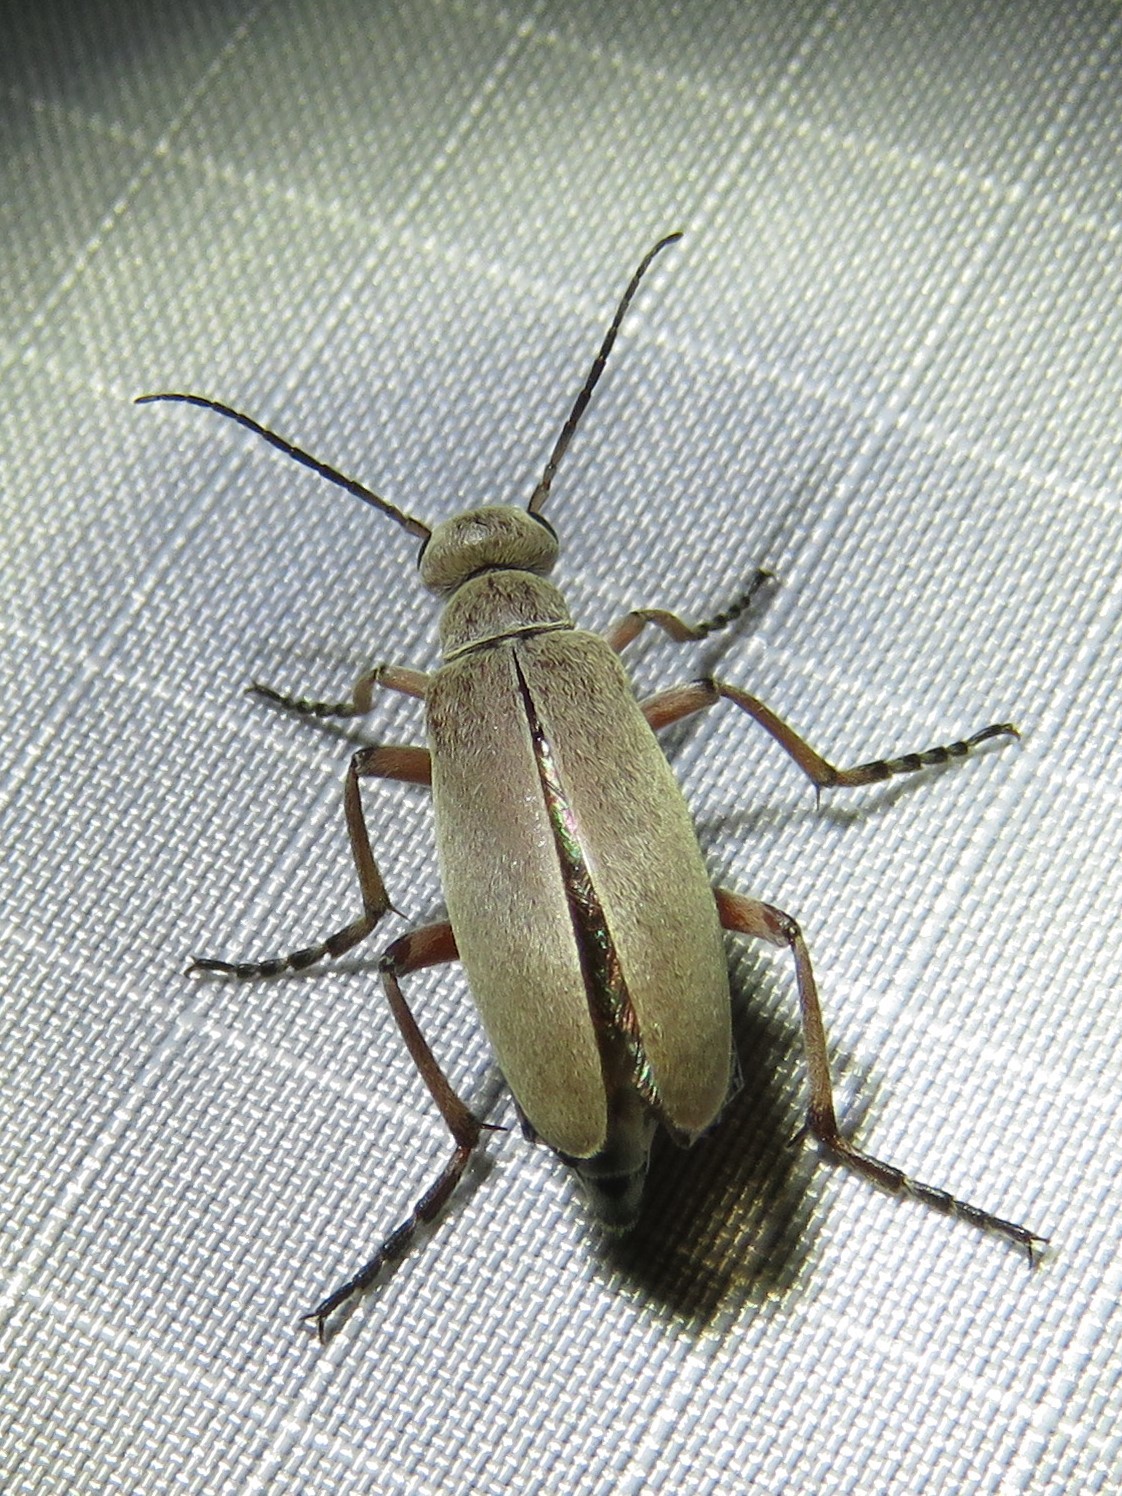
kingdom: Animalia
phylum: Arthropoda
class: Insecta
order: Coleoptera
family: Meloidae
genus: Epicauta
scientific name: Epicauta nigritarsis
